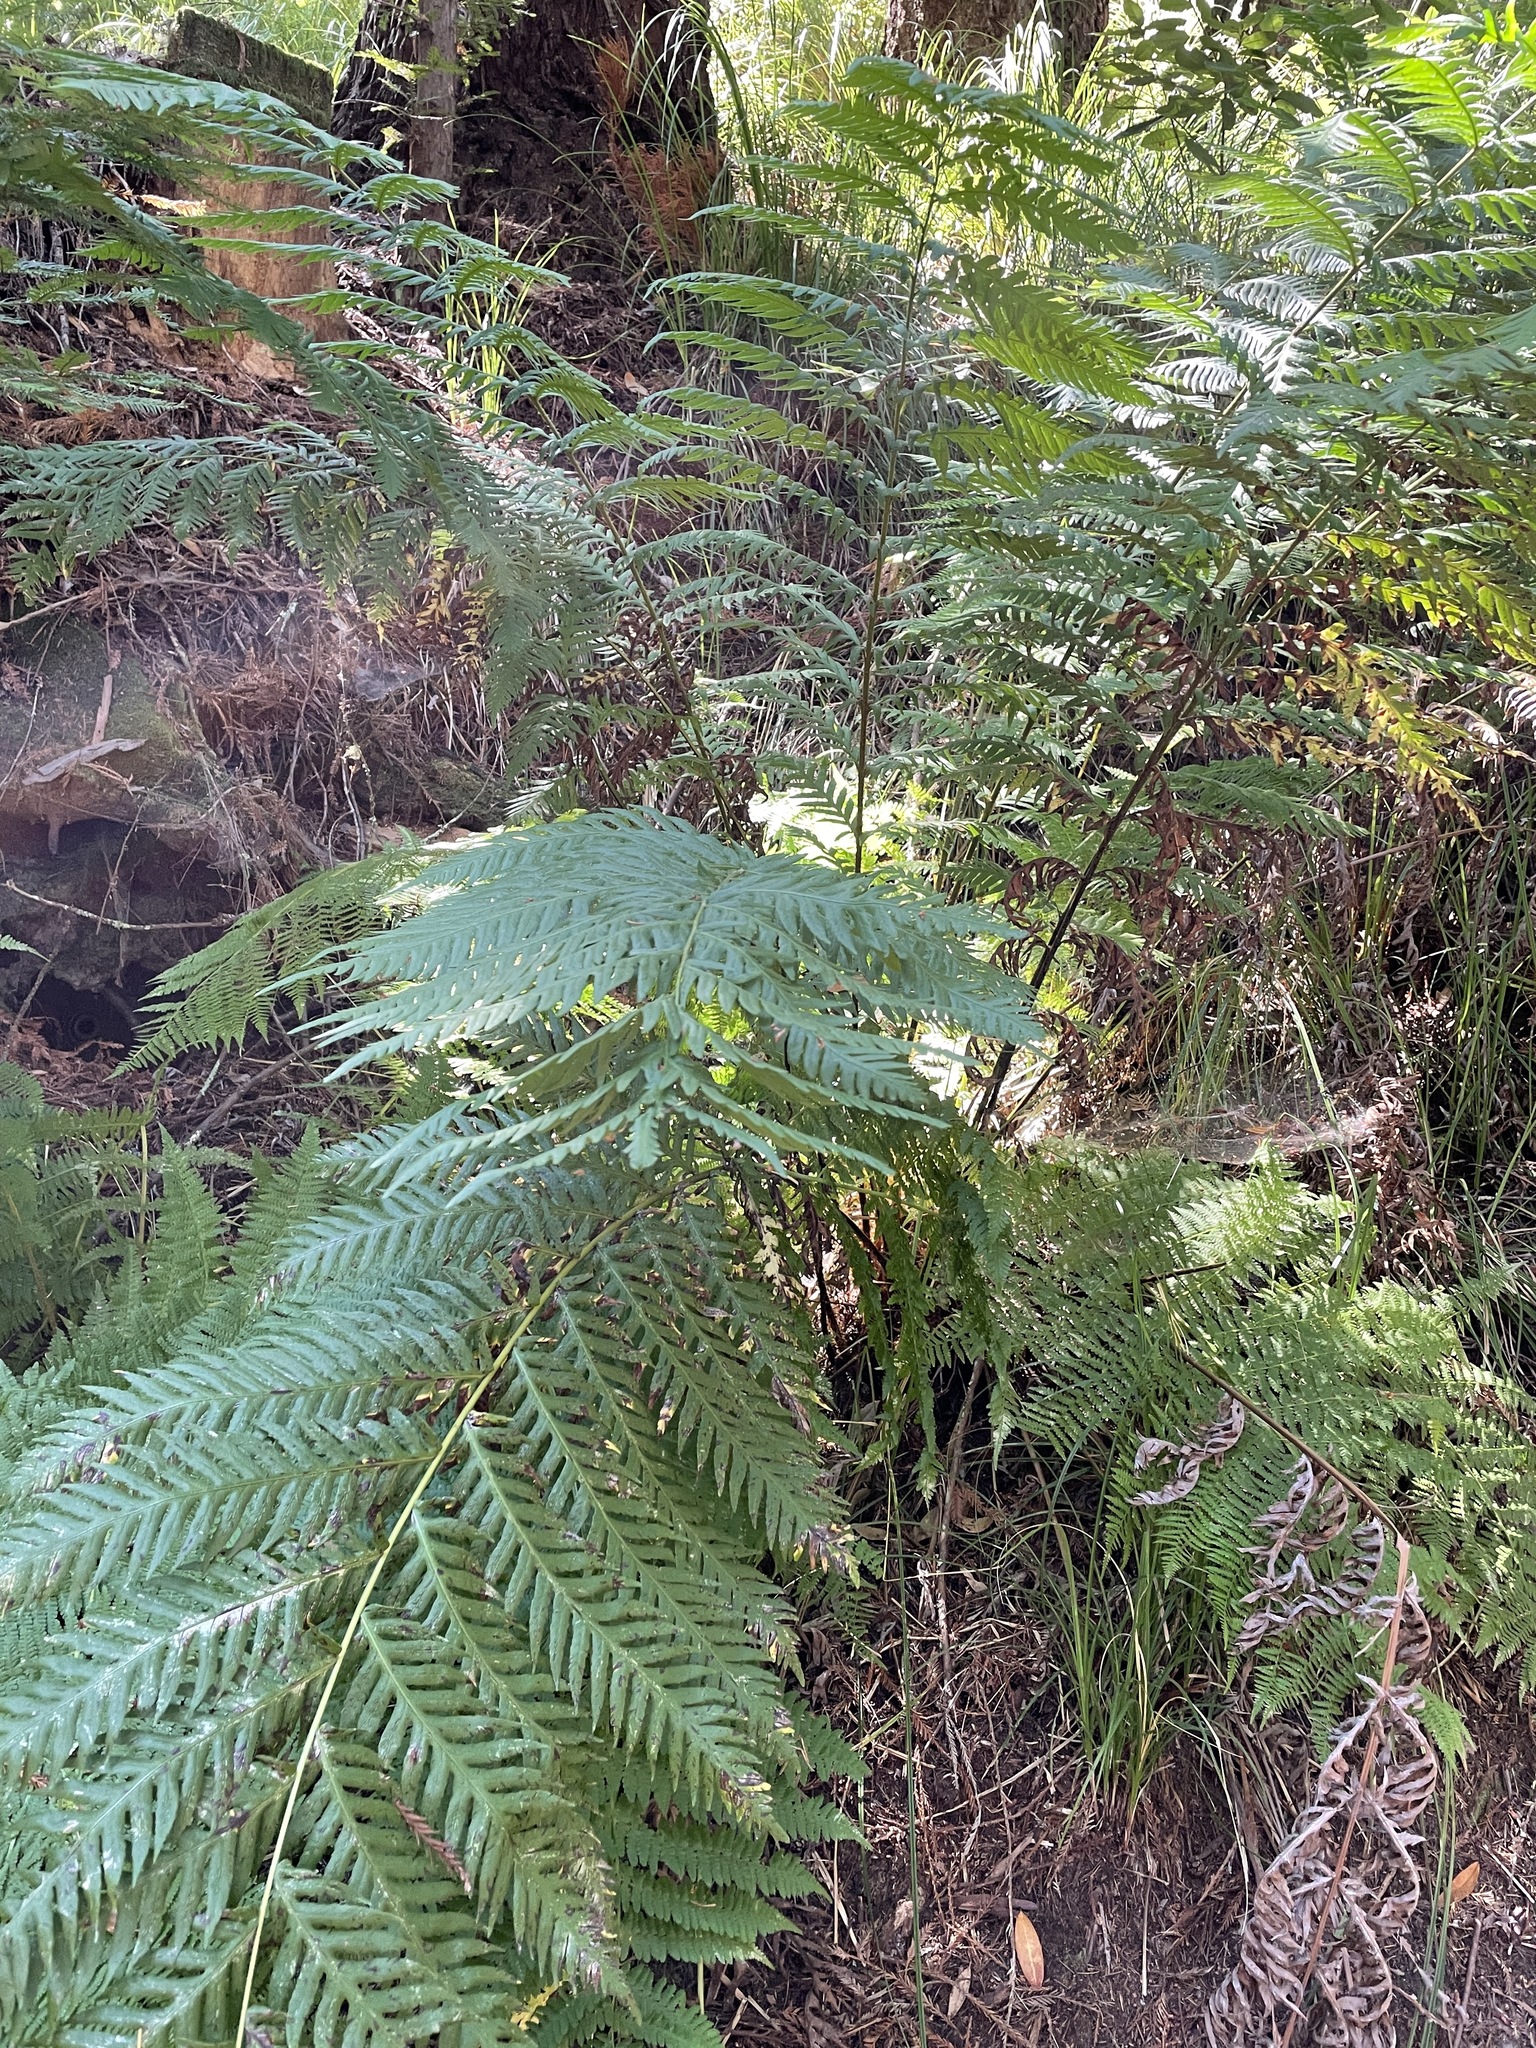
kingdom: Plantae
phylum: Tracheophyta
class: Polypodiopsida
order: Polypodiales
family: Blechnaceae
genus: Woodwardia
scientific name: Woodwardia fimbriata
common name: Giant chain fern
